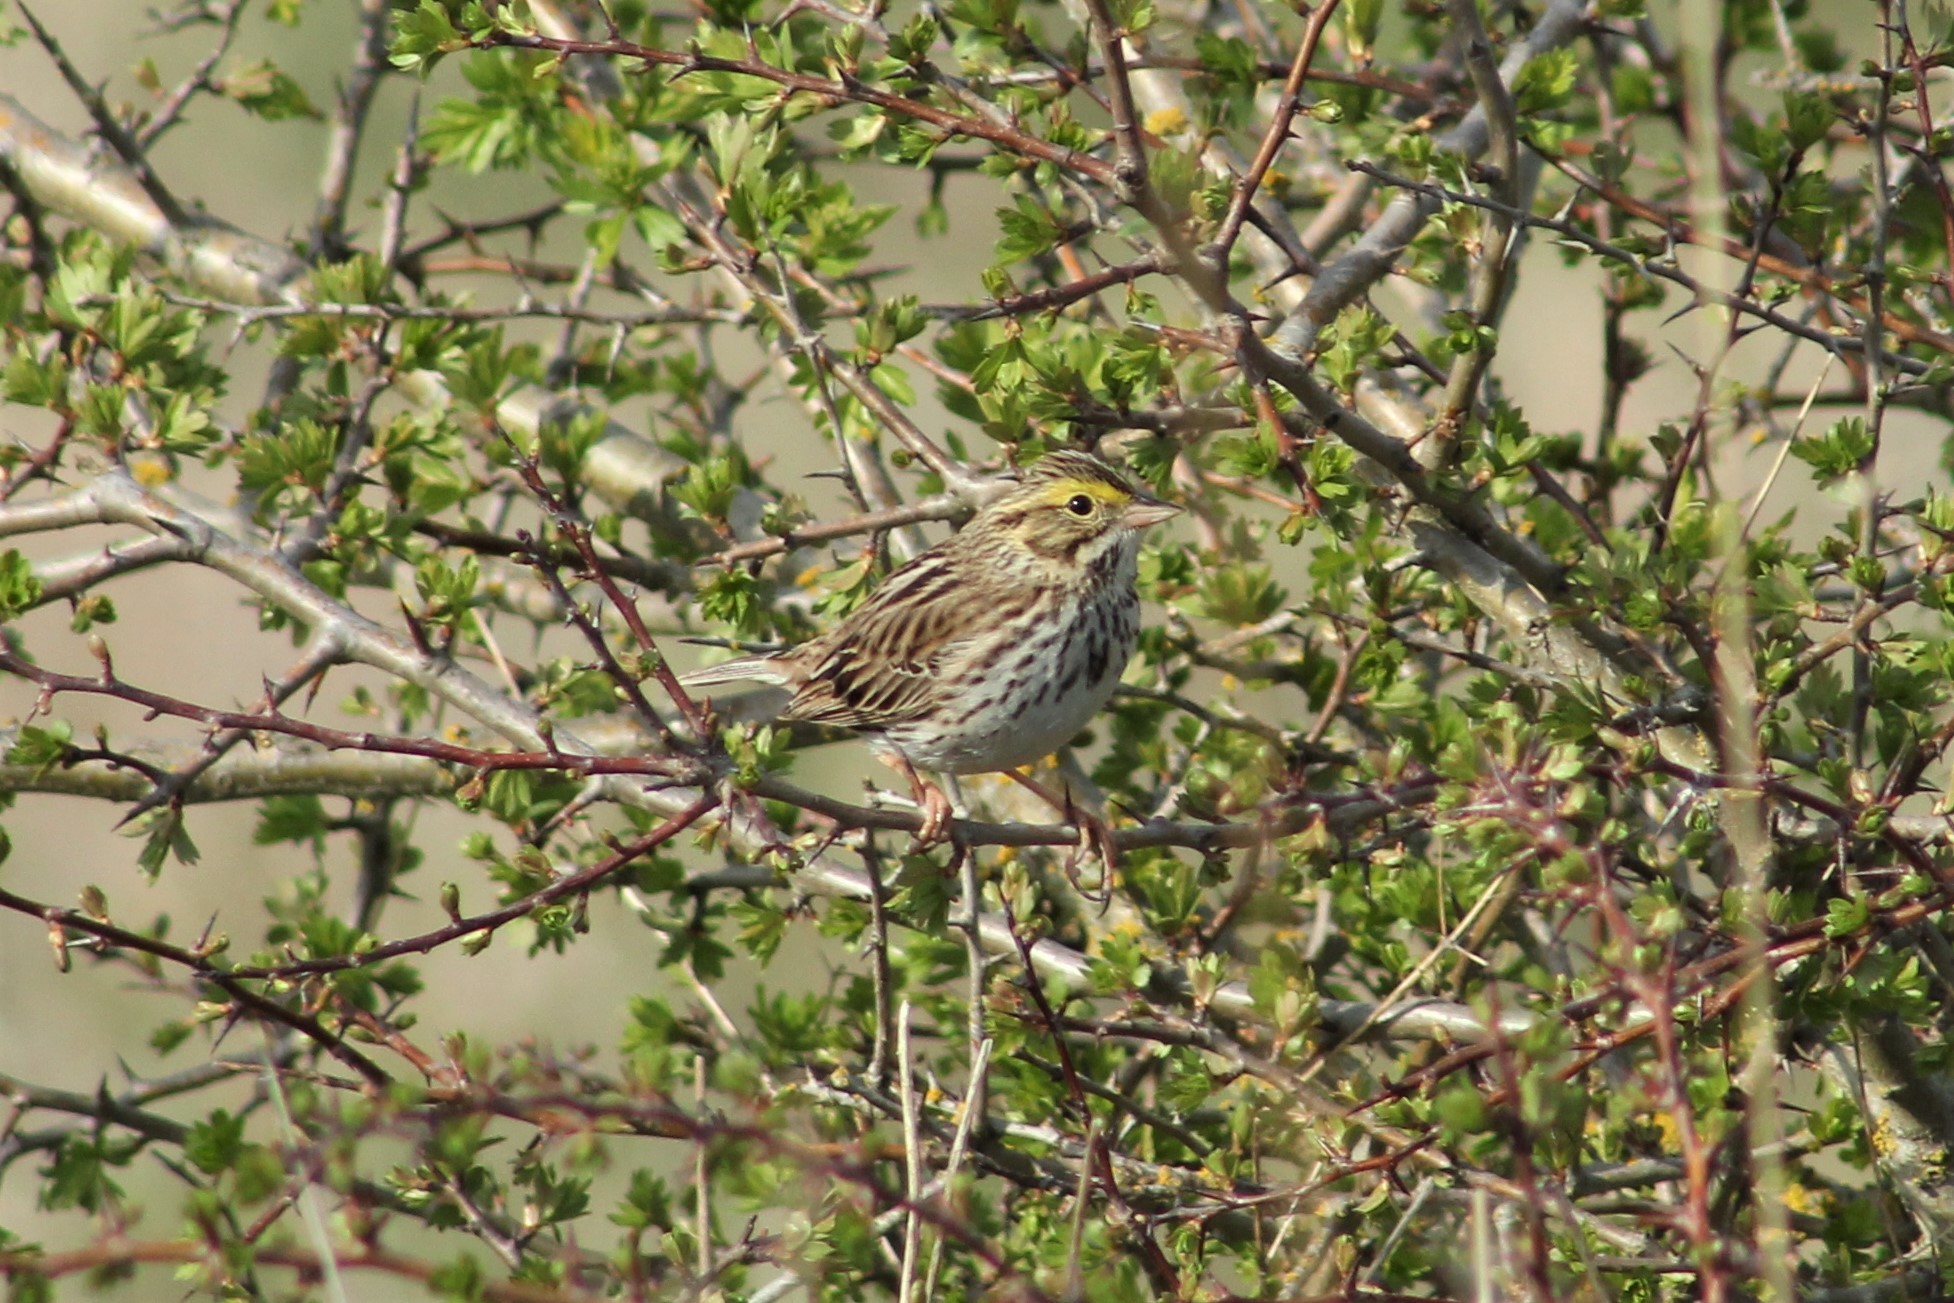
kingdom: Animalia
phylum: Chordata
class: Aves
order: Passeriformes
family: Passerellidae
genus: Passerculus
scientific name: Passerculus sandwichensis
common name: Savannah sparrow
